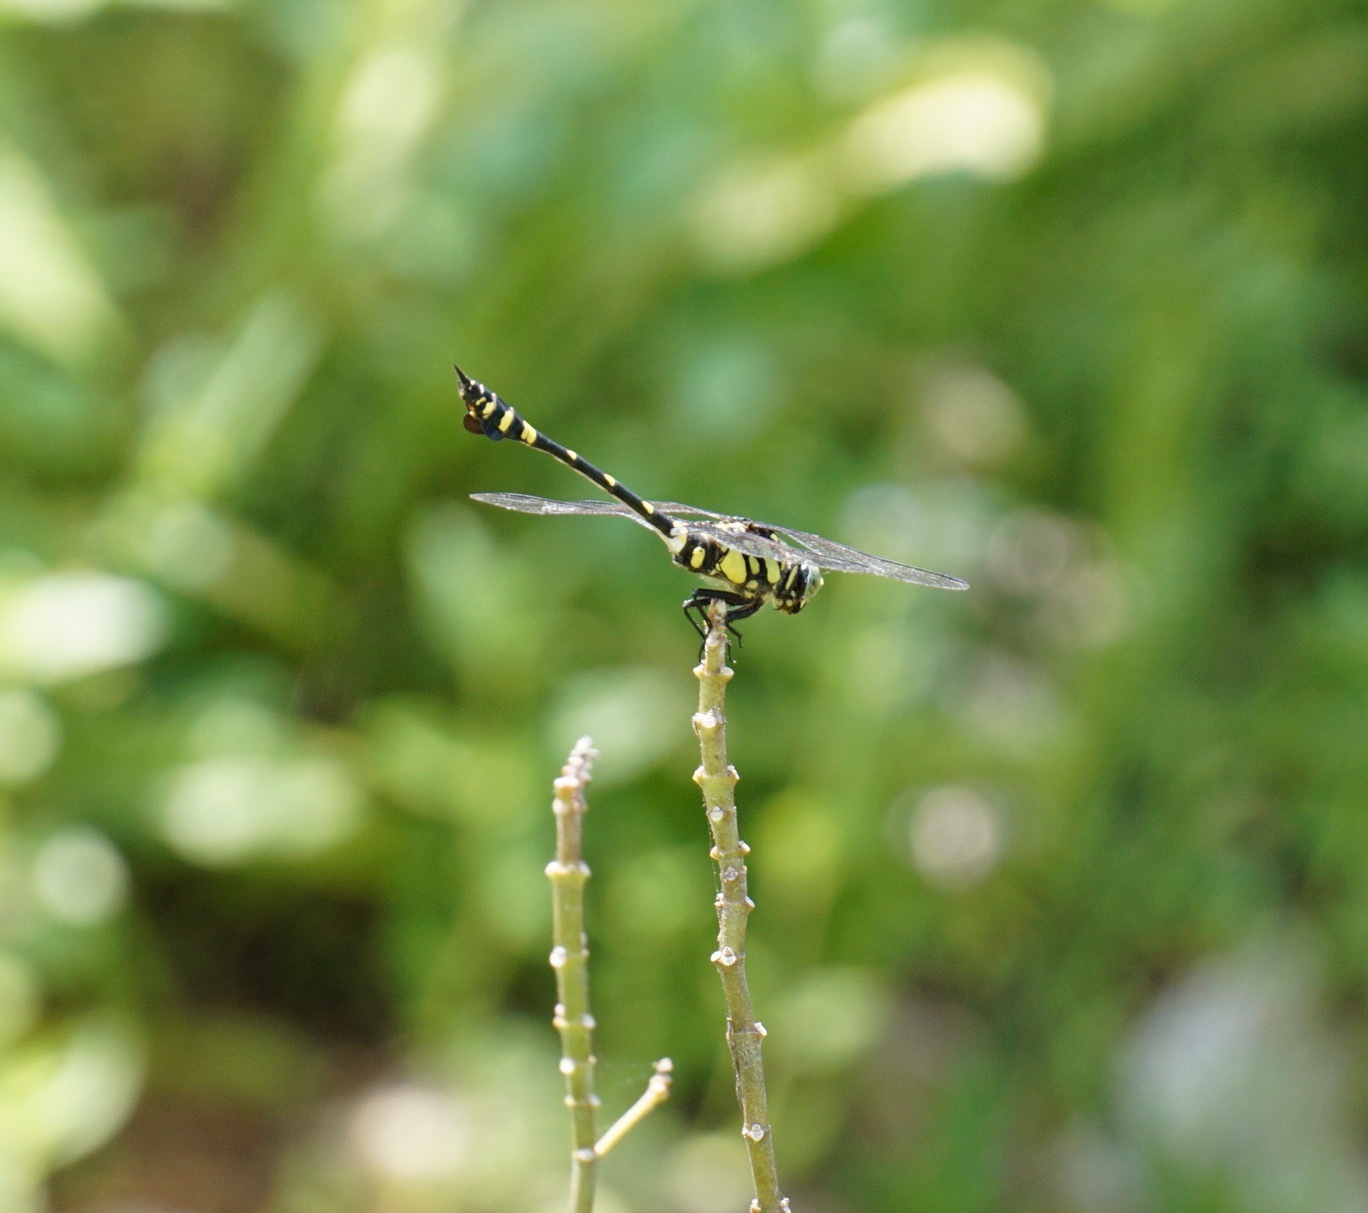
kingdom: Animalia
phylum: Arthropoda
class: Insecta
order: Odonata
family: Gomphidae
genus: Ictinogomphus
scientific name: Ictinogomphus pertinax
